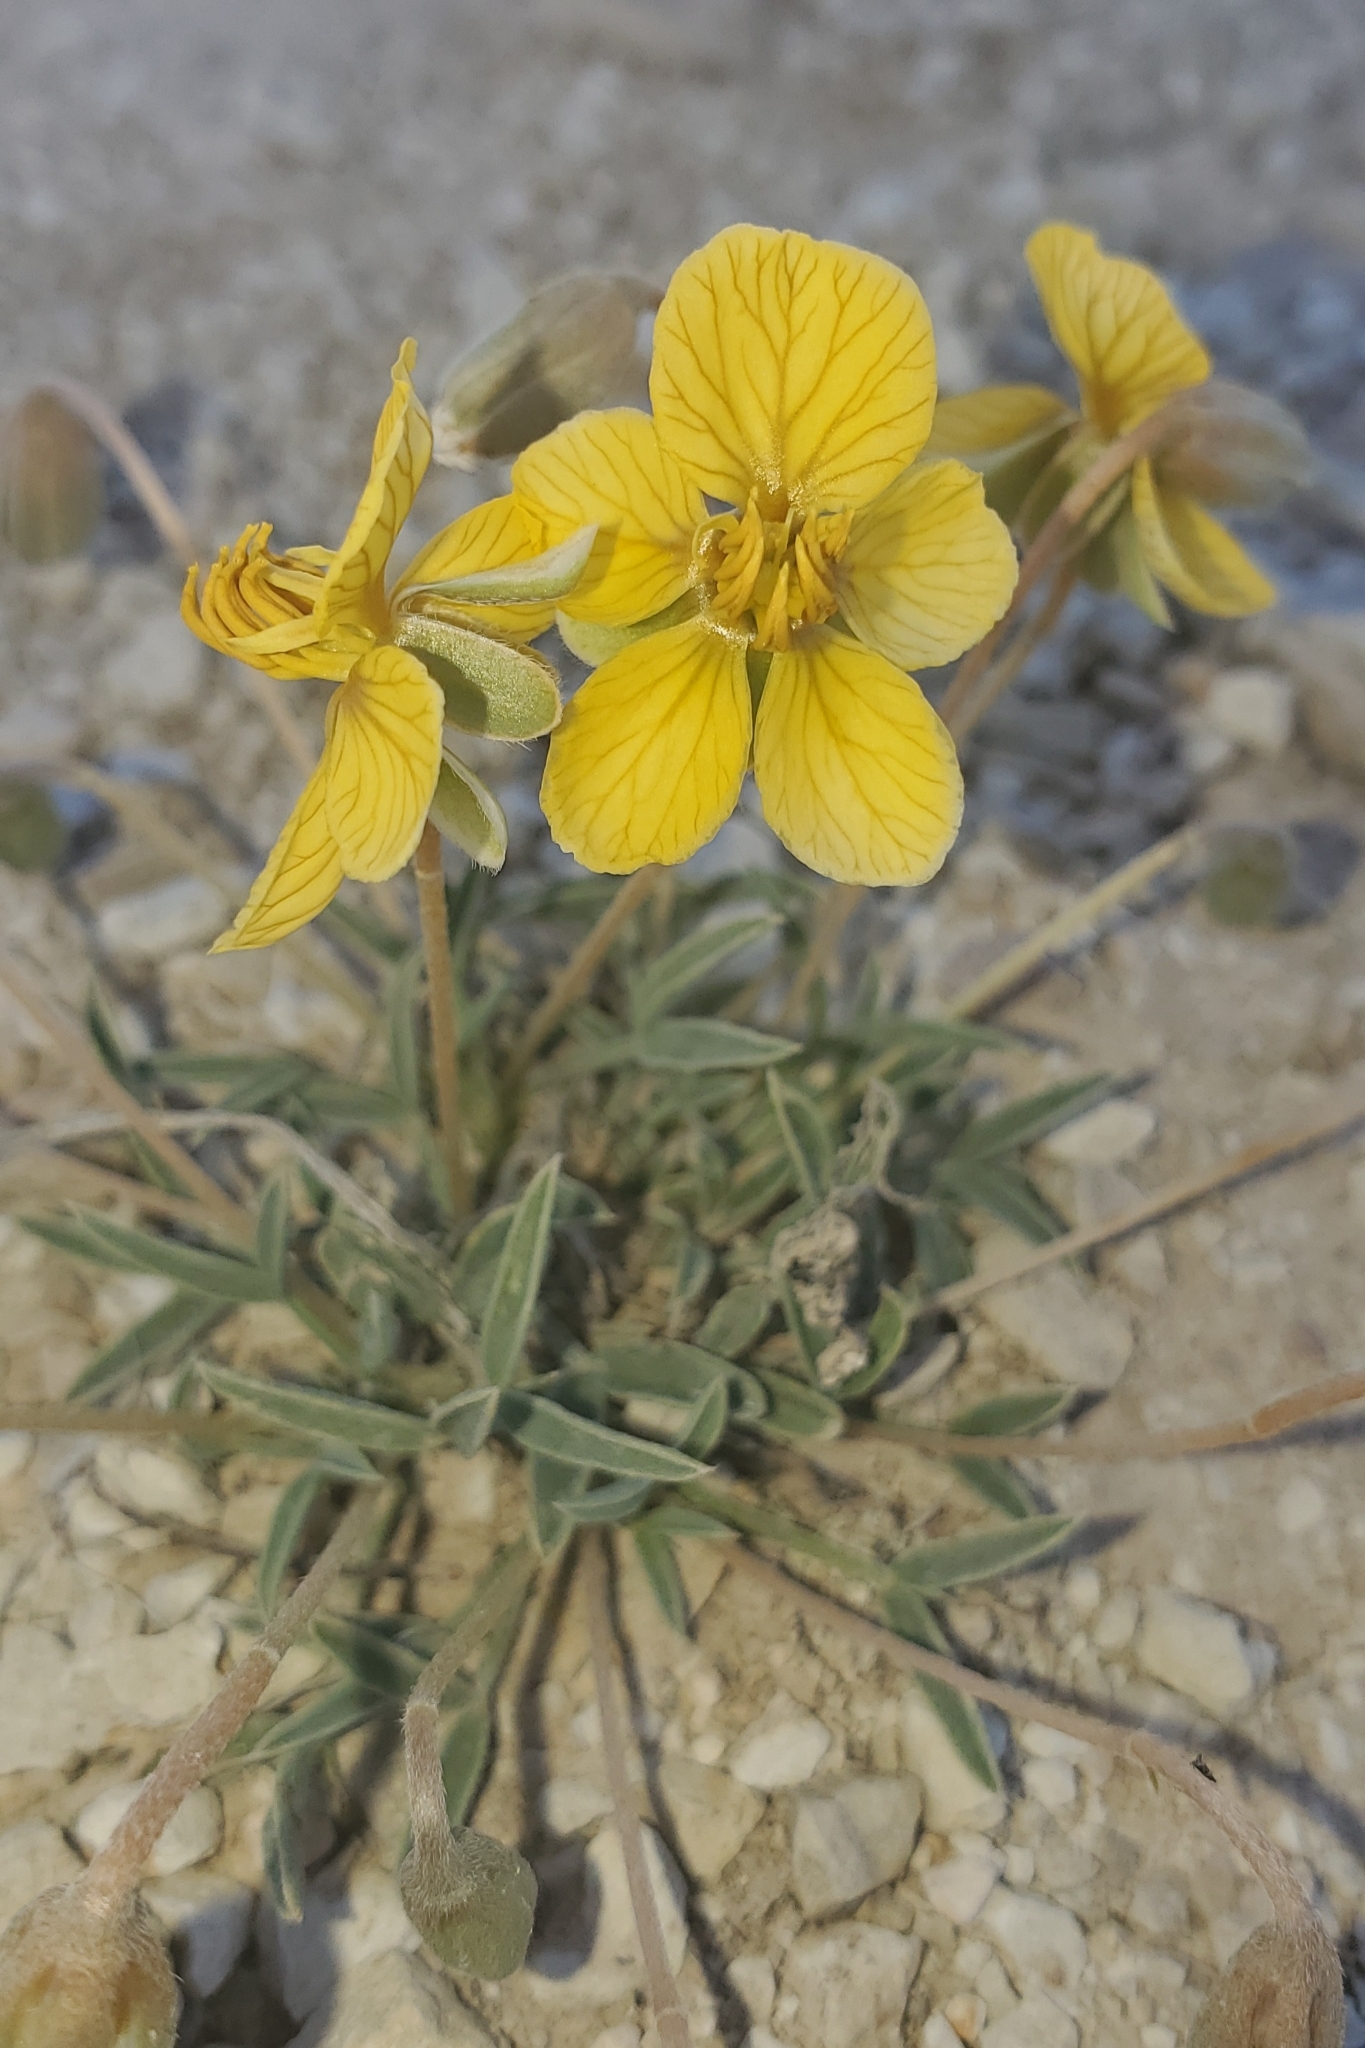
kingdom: Plantae
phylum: Tracheophyta
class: Magnoliopsida
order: Fabales
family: Fabaceae
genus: Senna
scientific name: Senna pumilio
